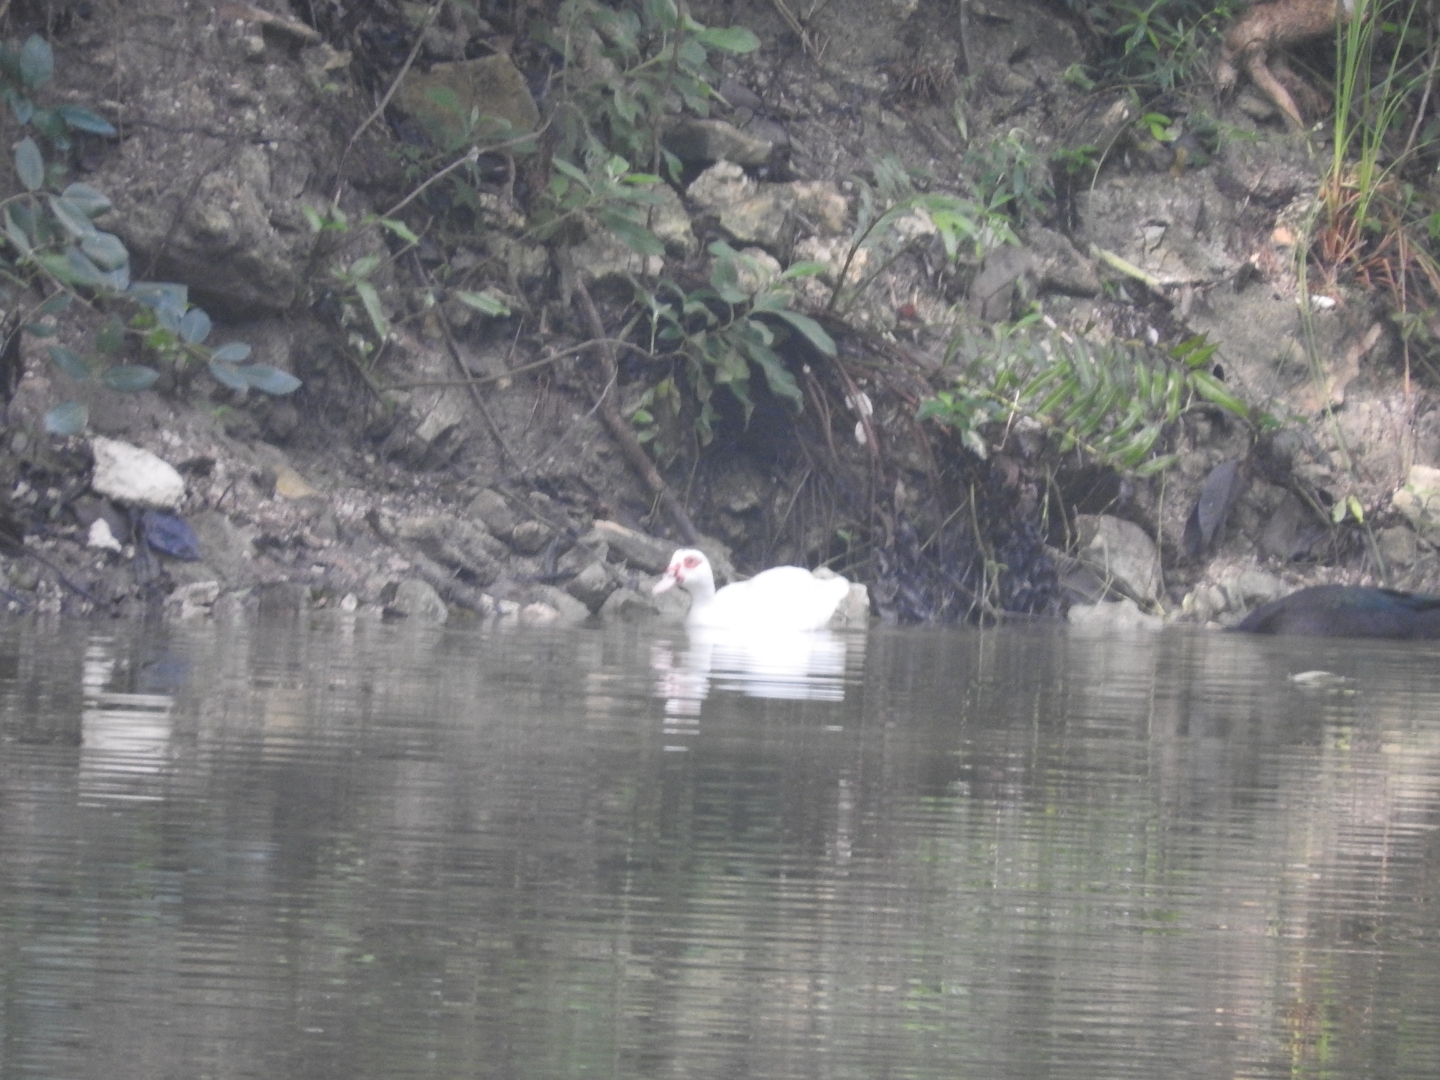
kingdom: Animalia
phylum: Chordata
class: Aves
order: Anseriformes
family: Anatidae
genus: Cairina
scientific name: Cairina moschata
